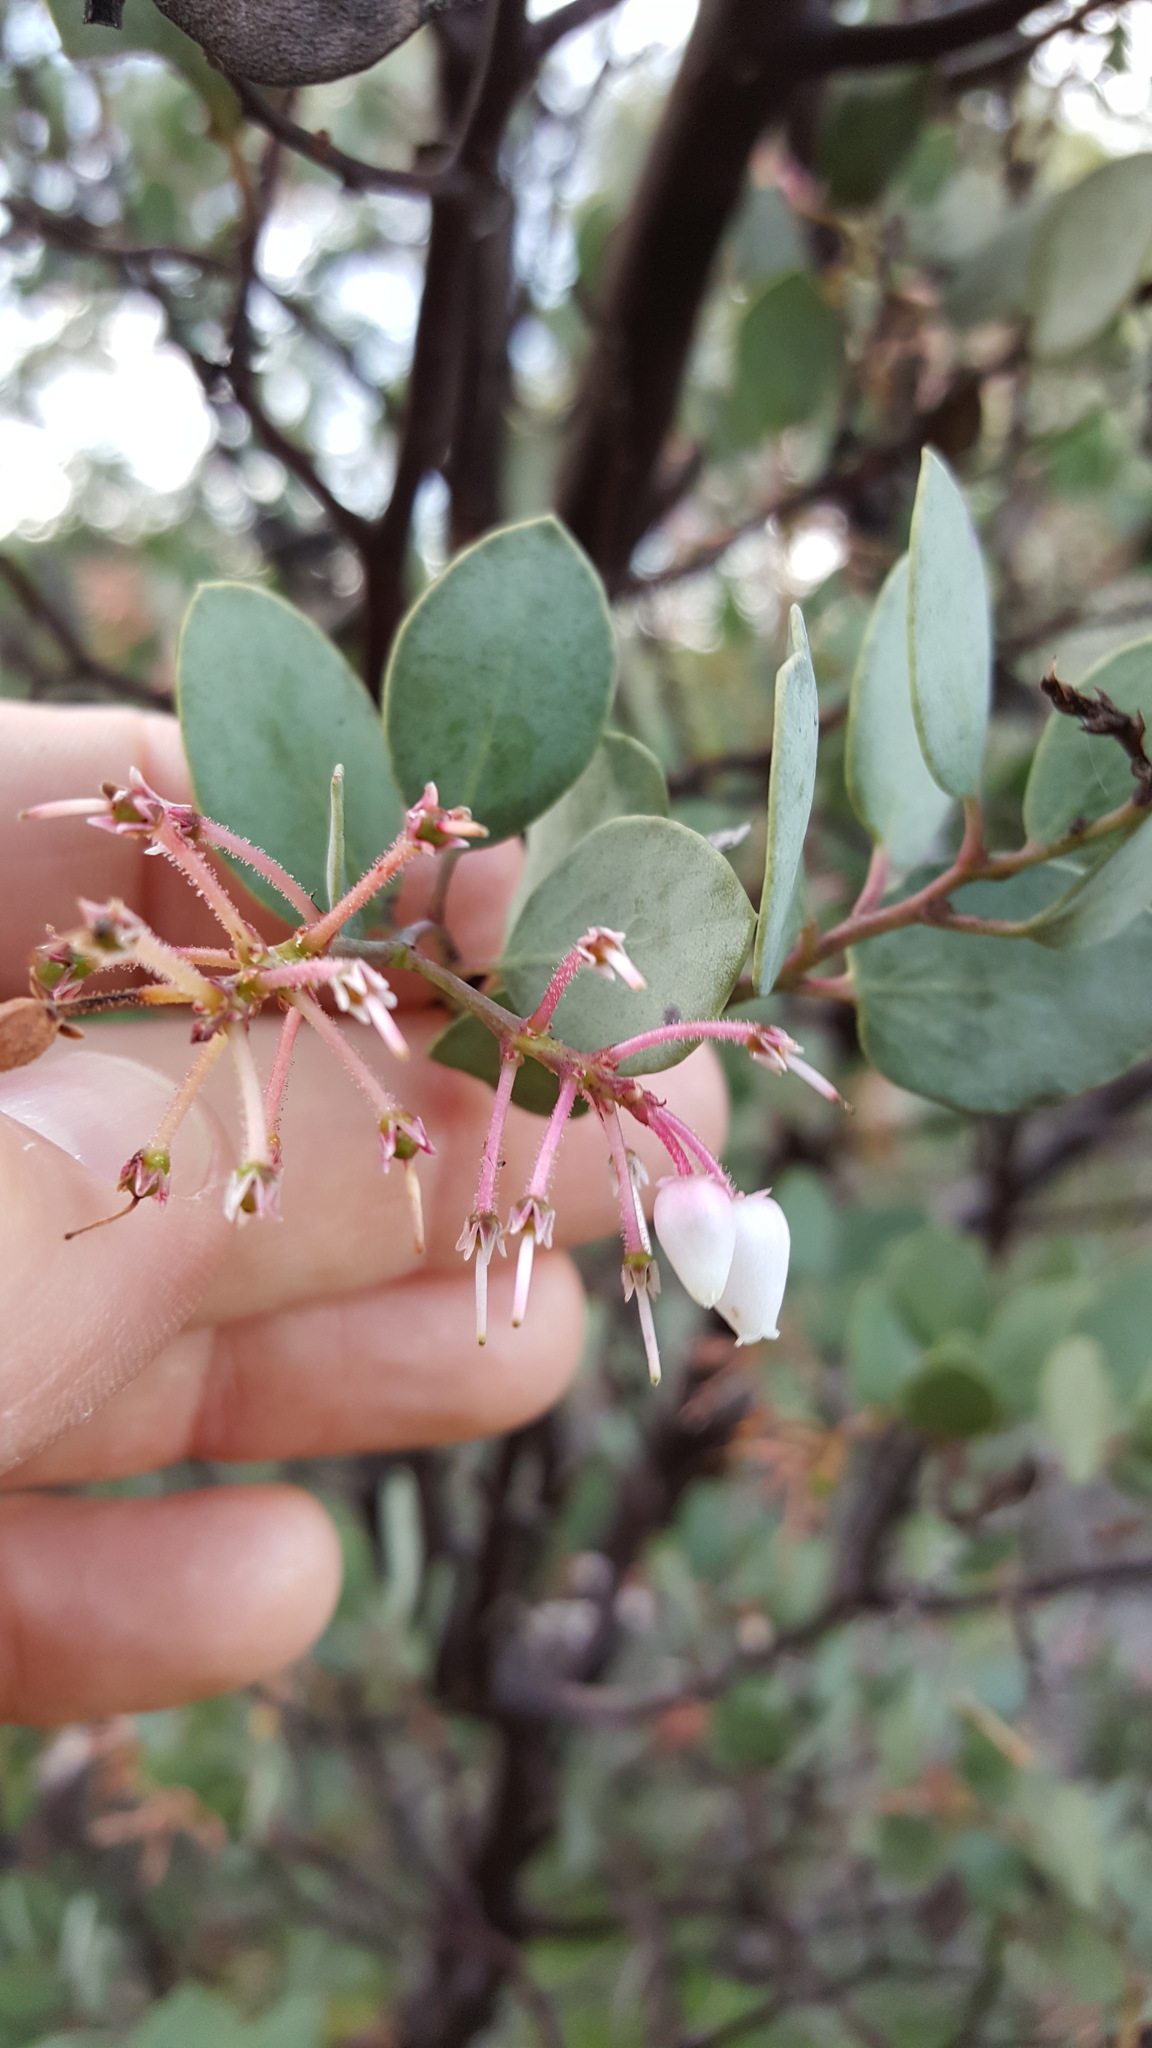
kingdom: Plantae
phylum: Tracheophyta
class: Magnoliopsida
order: Ericales
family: Ericaceae
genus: Arctostaphylos
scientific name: Arctostaphylos viscida
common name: White-leaf manzanita
